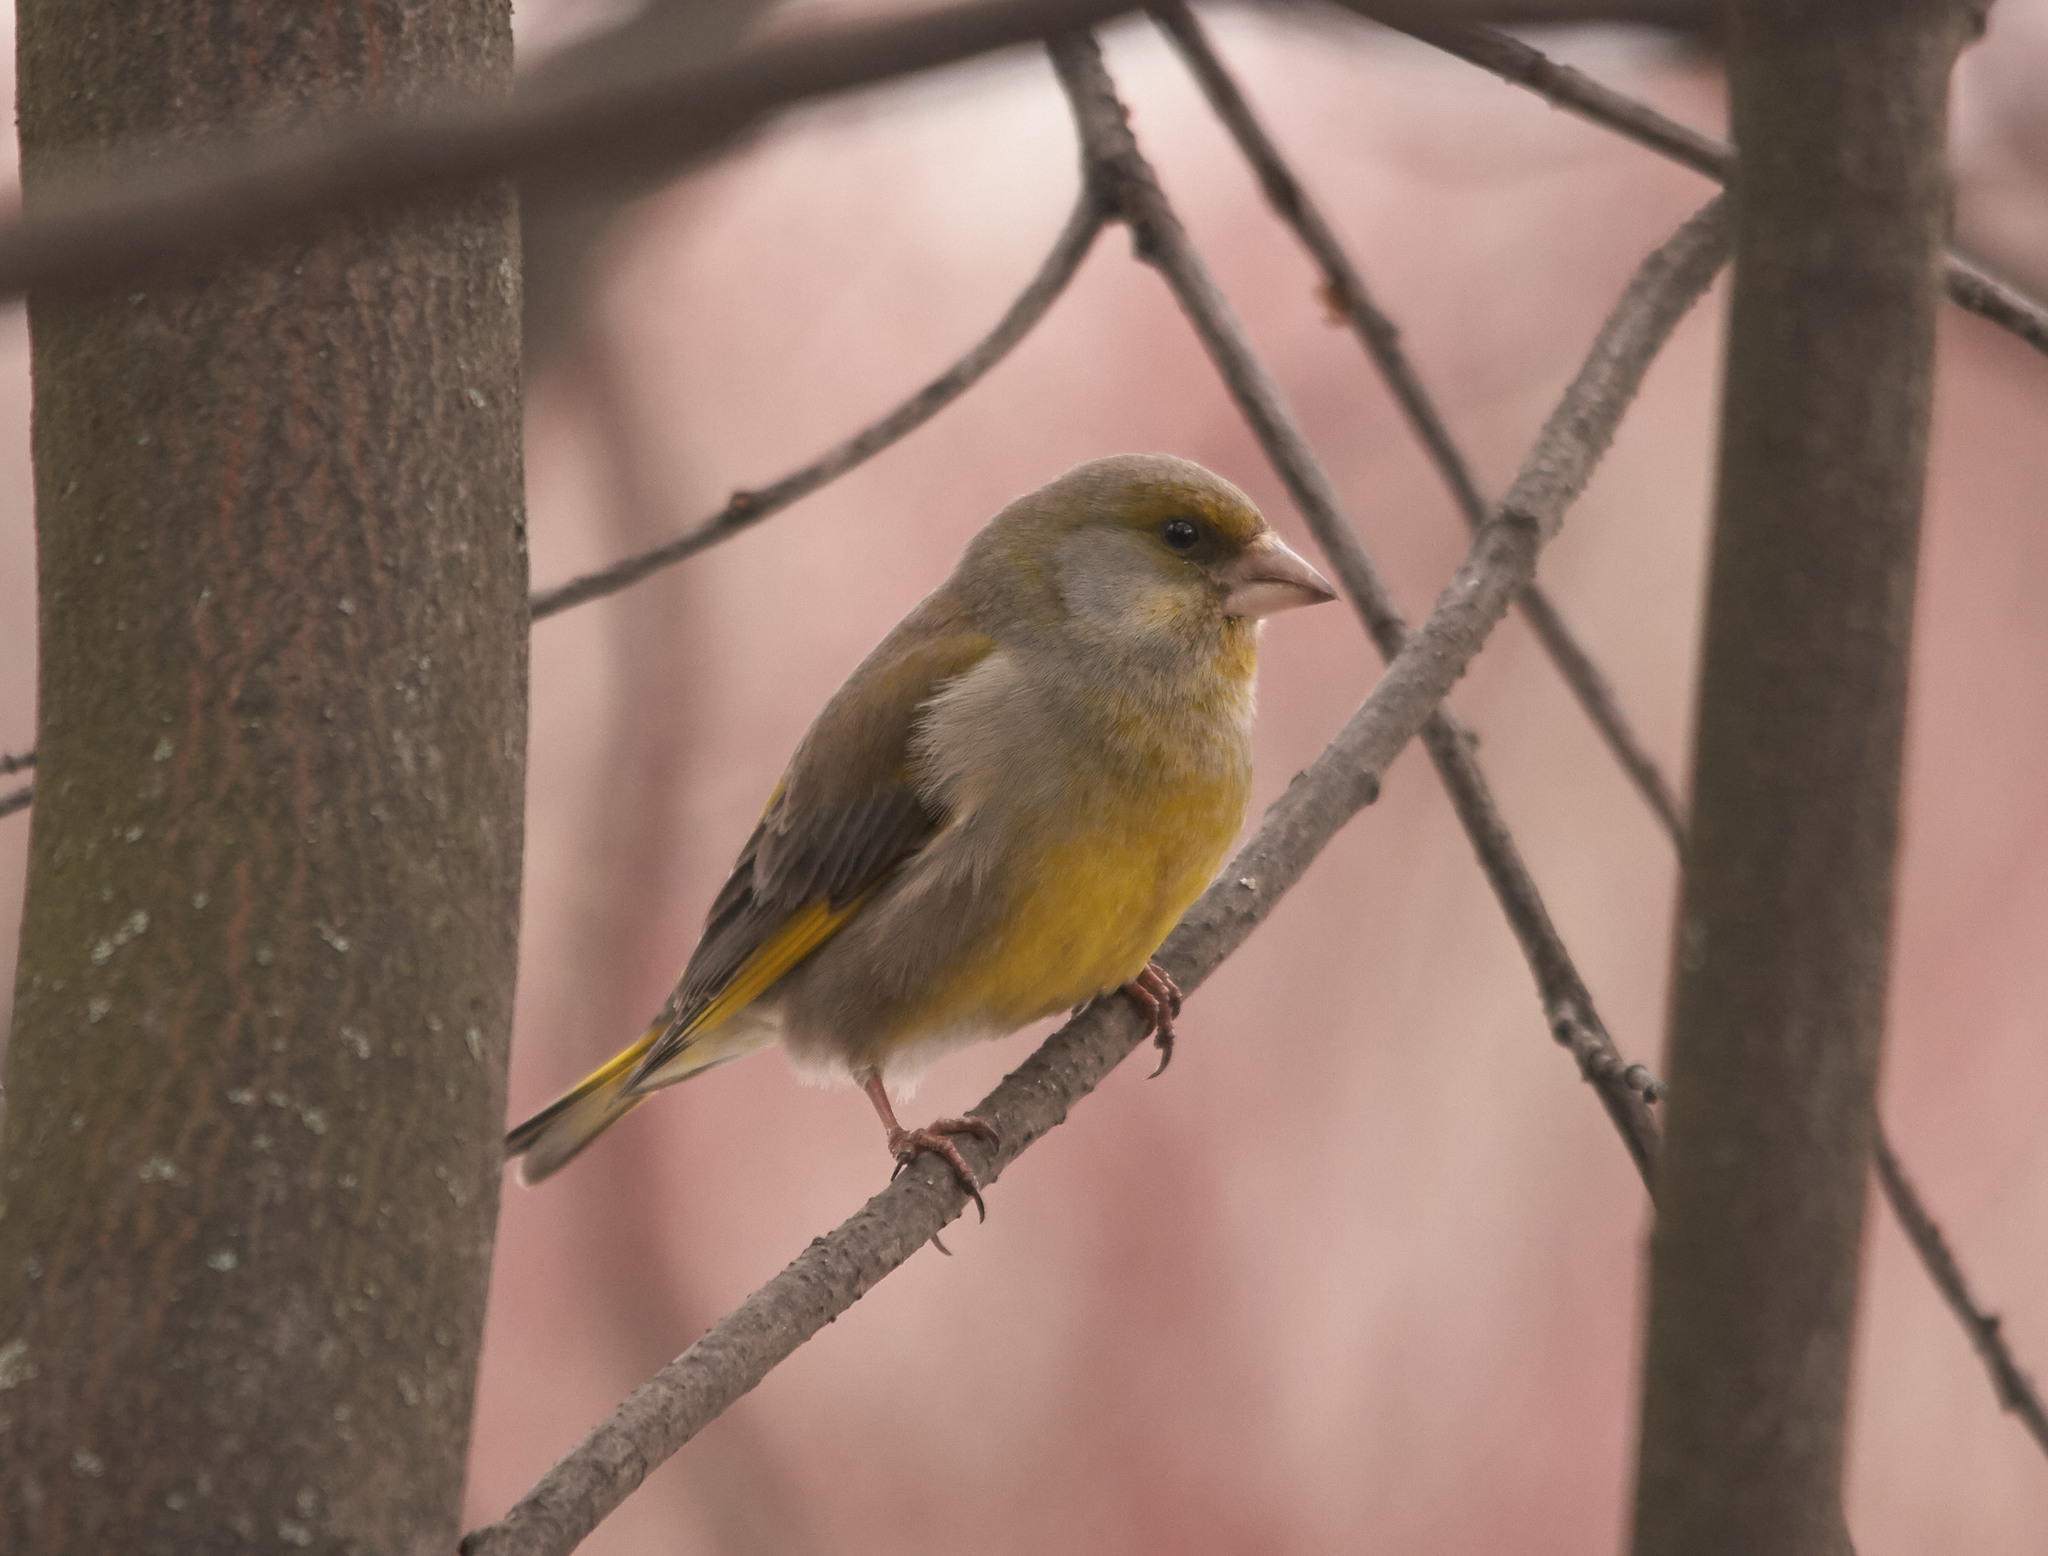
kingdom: Plantae
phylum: Tracheophyta
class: Liliopsida
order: Poales
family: Poaceae
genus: Chloris
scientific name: Chloris chloris
